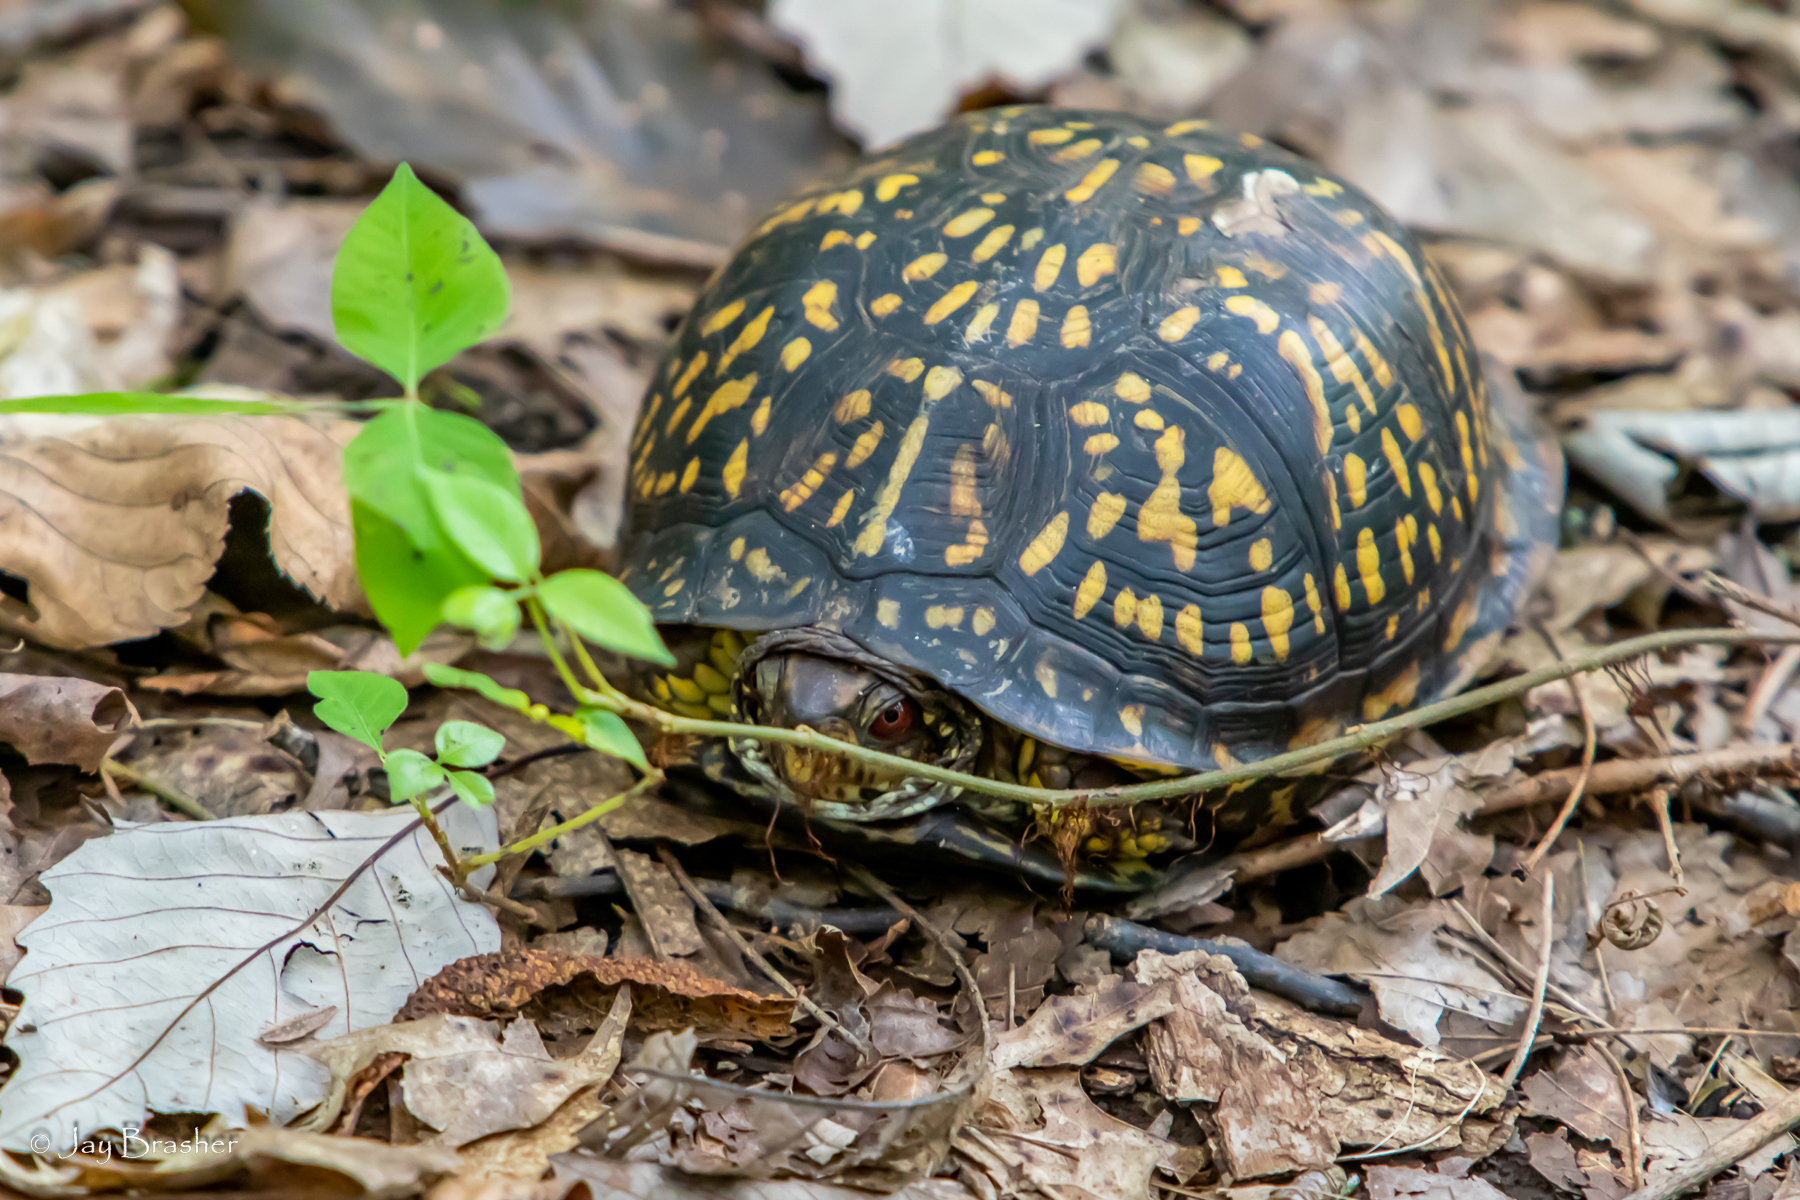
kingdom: Animalia
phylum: Chordata
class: Testudines
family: Emydidae
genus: Terrapene
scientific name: Terrapene carolina
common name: Common box turtle
